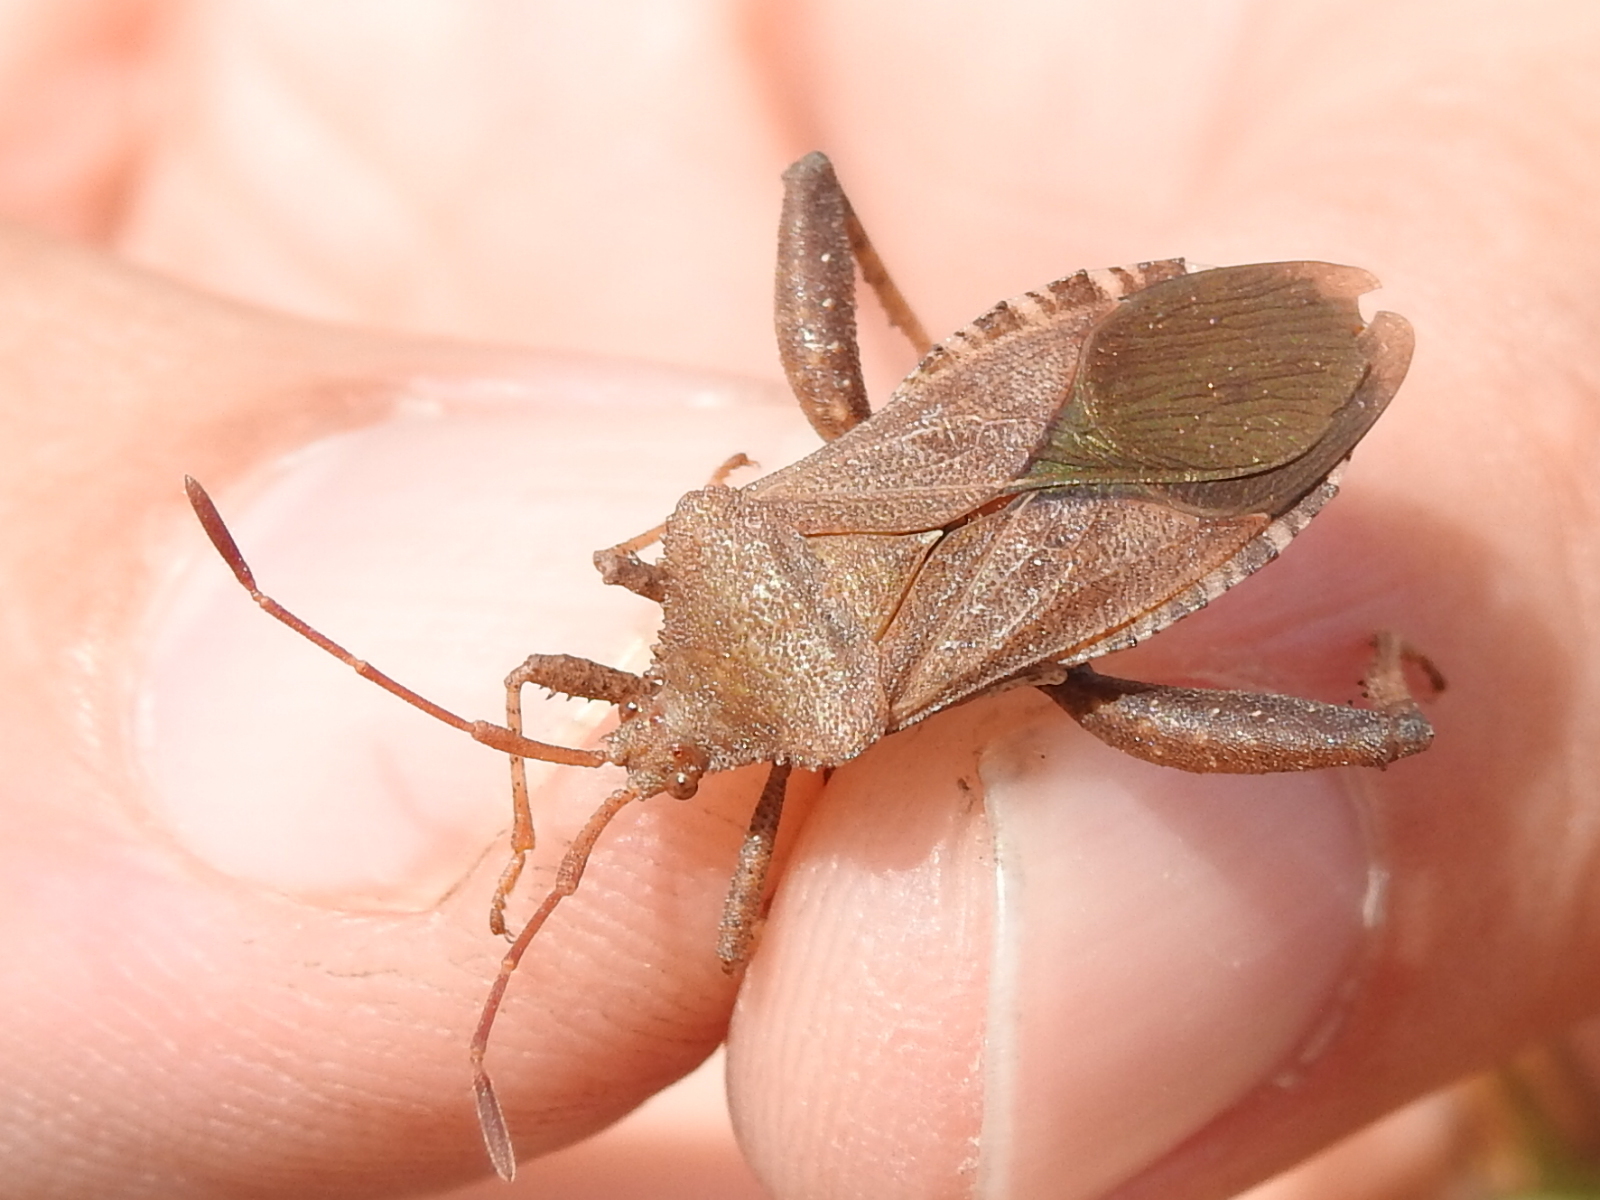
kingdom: Animalia
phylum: Arthropoda
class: Insecta
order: Hemiptera
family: Coreidae
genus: Euthochtha
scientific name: Euthochtha galeator
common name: Helmeted squash bug
